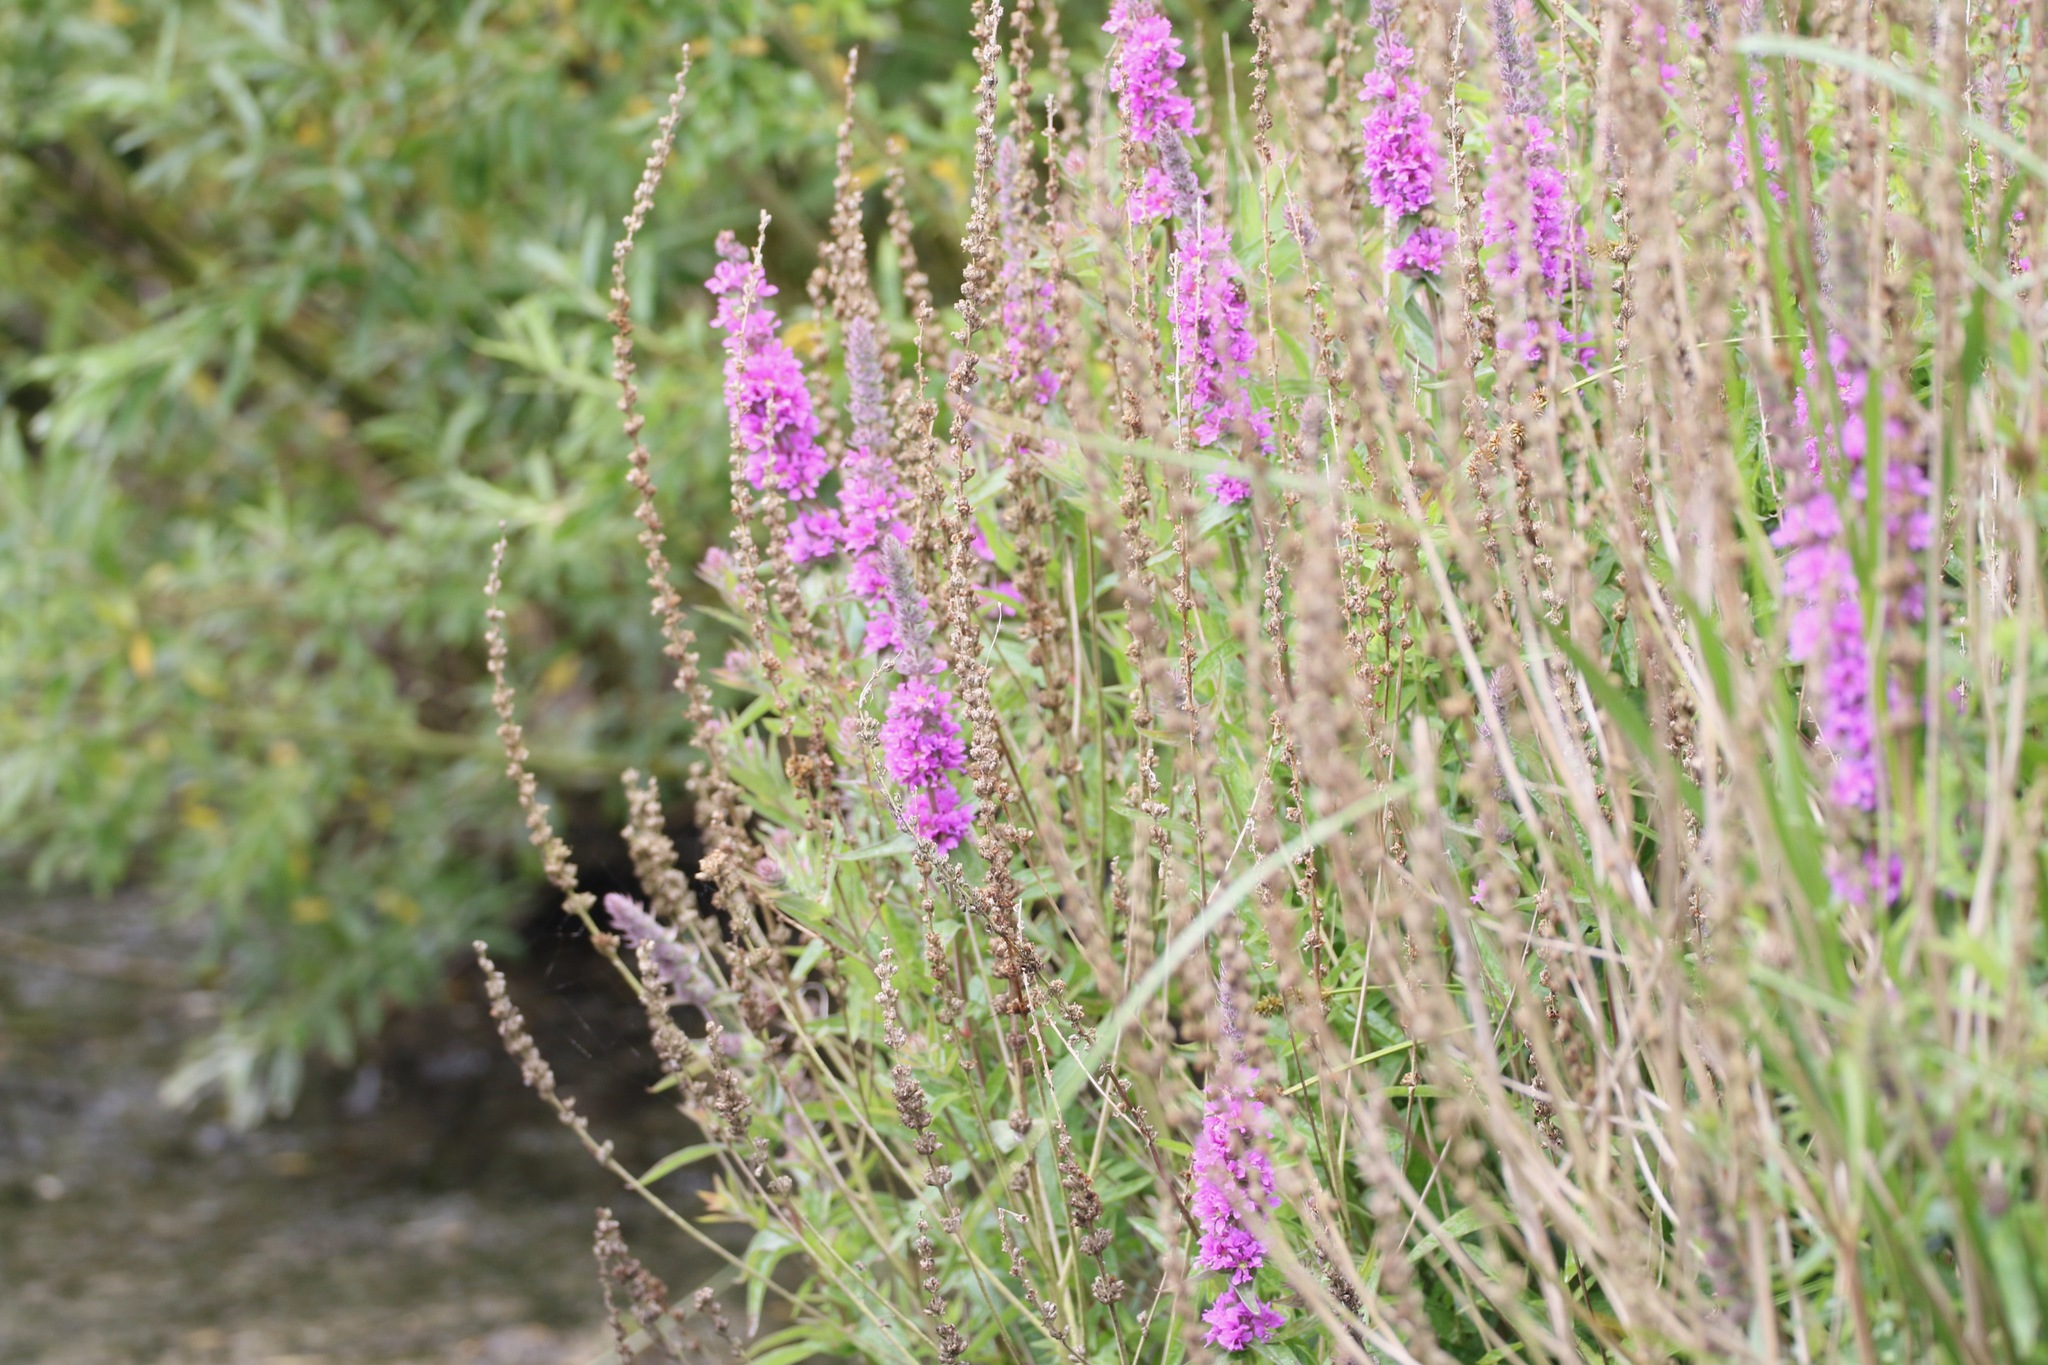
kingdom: Plantae
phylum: Tracheophyta
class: Magnoliopsida
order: Myrtales
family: Lythraceae
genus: Lythrum
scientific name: Lythrum salicaria
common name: Purple loosestrife
